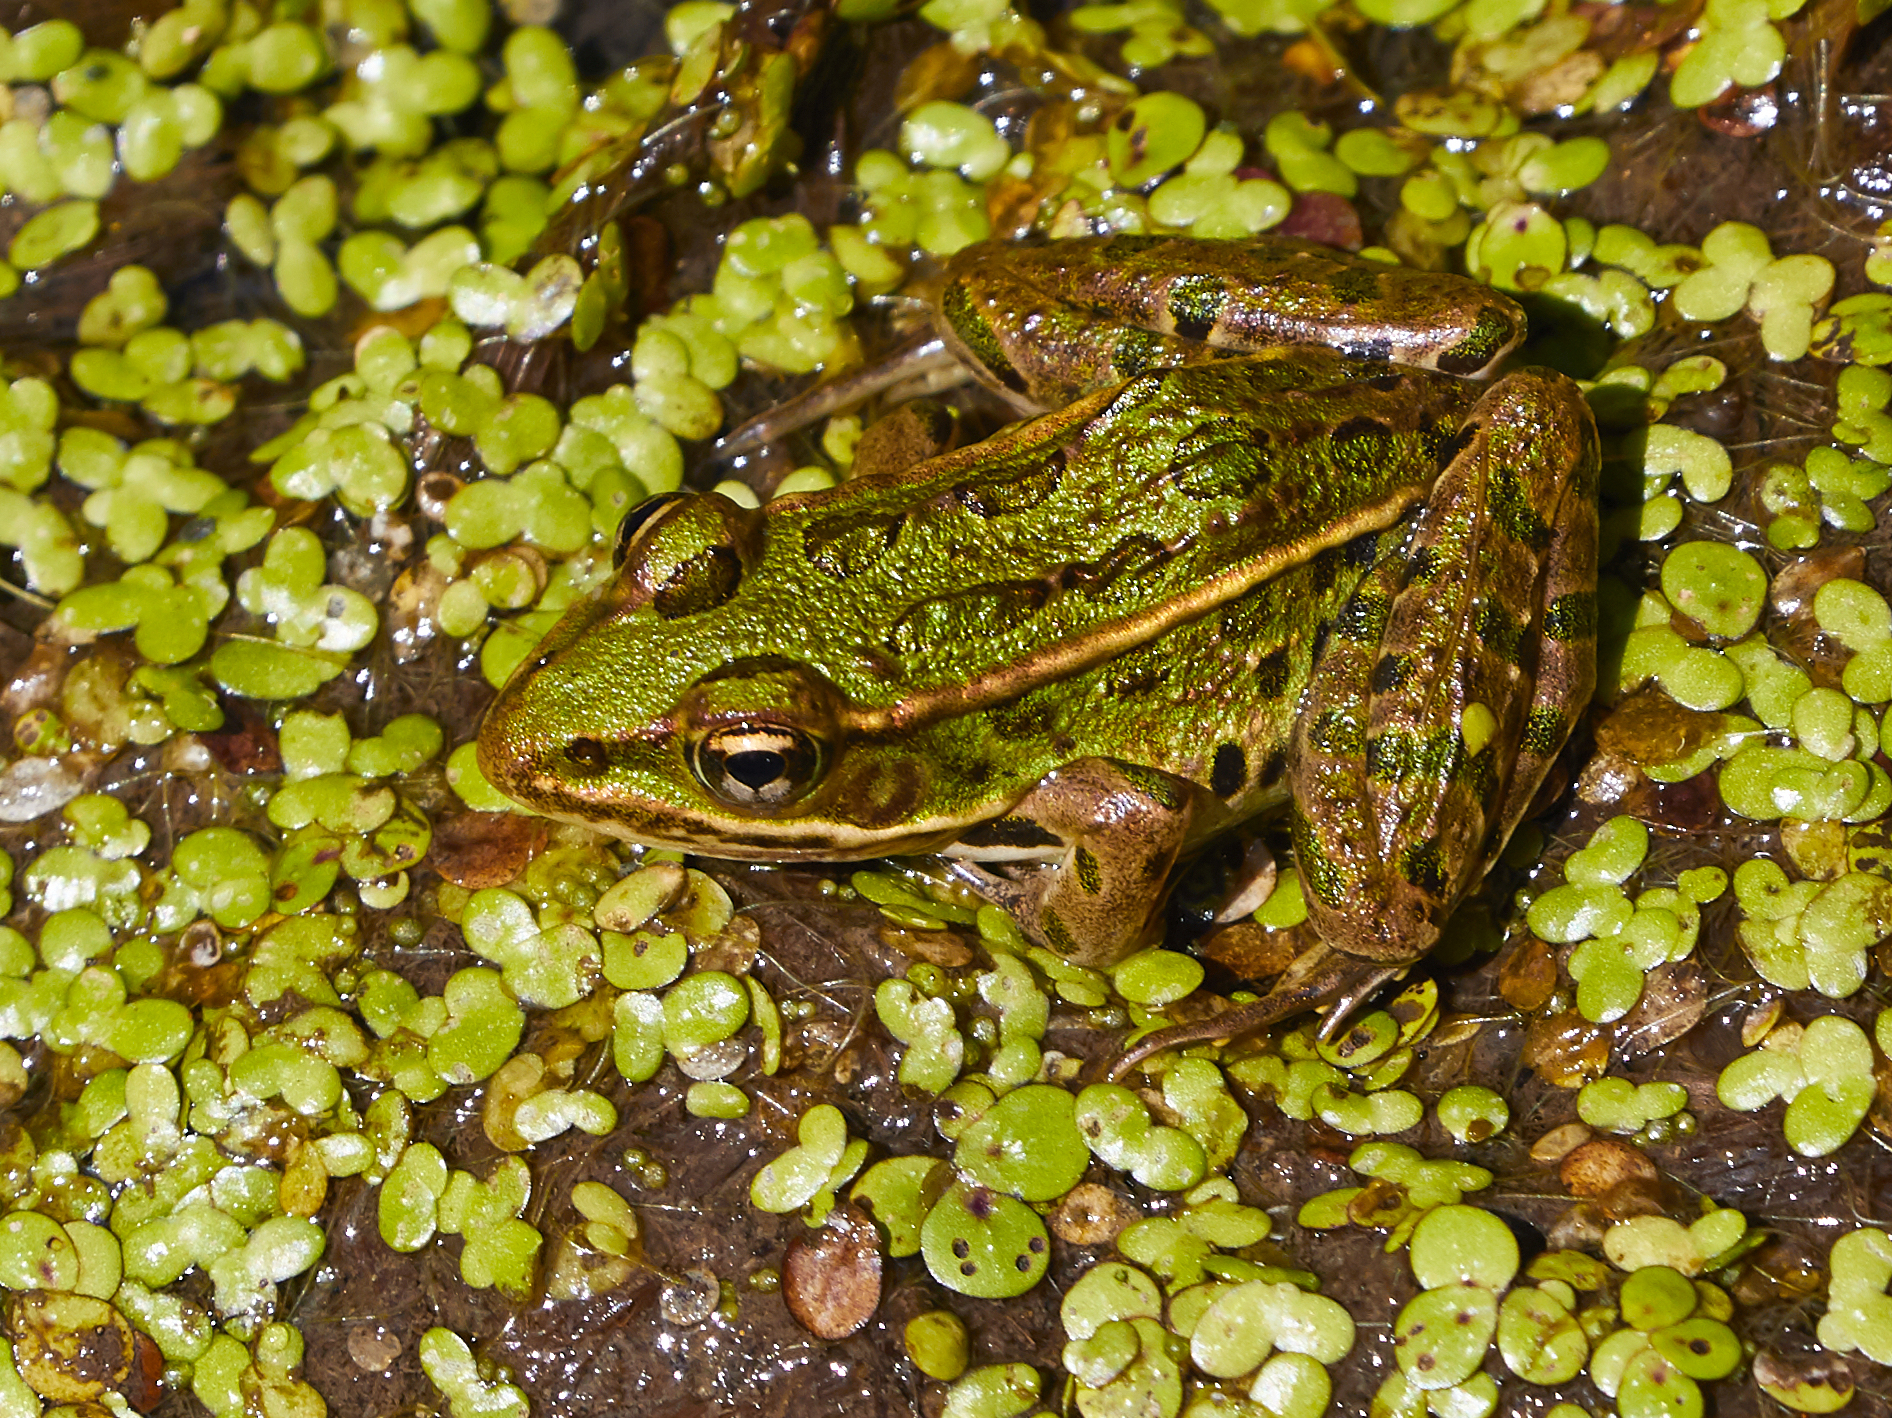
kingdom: Animalia
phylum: Chordata
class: Amphibia
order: Anura
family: Ranidae
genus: Lithobates
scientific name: Lithobates pipiens
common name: Northern leopard frog
